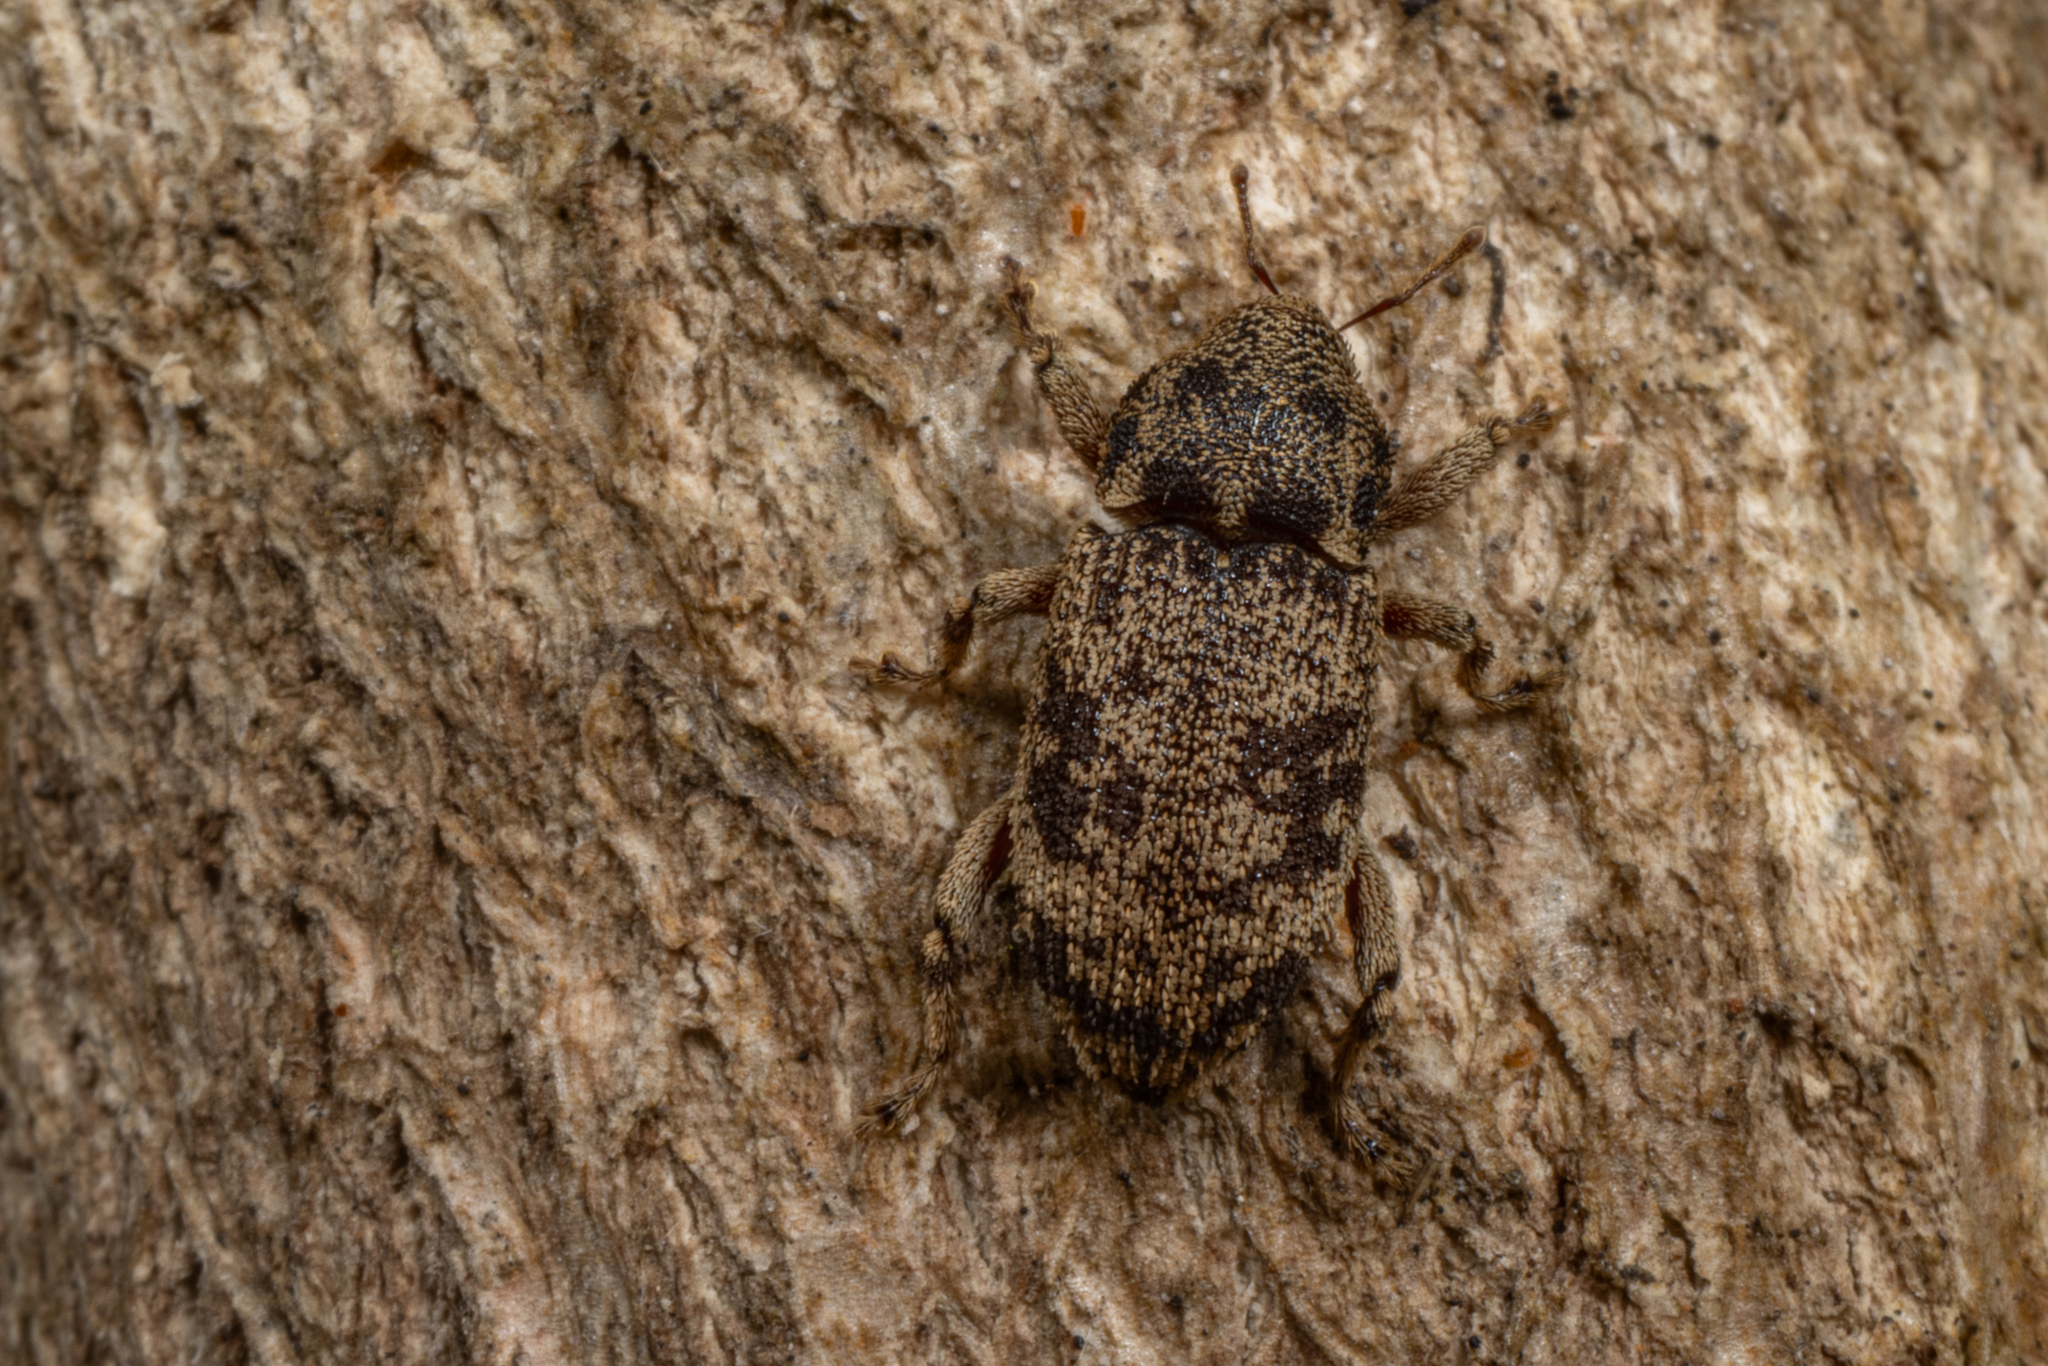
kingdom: Animalia
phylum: Arthropoda
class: Insecta
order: Coleoptera
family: Curculionidae
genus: Strongylopterus
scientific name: Strongylopterus hylopioides
